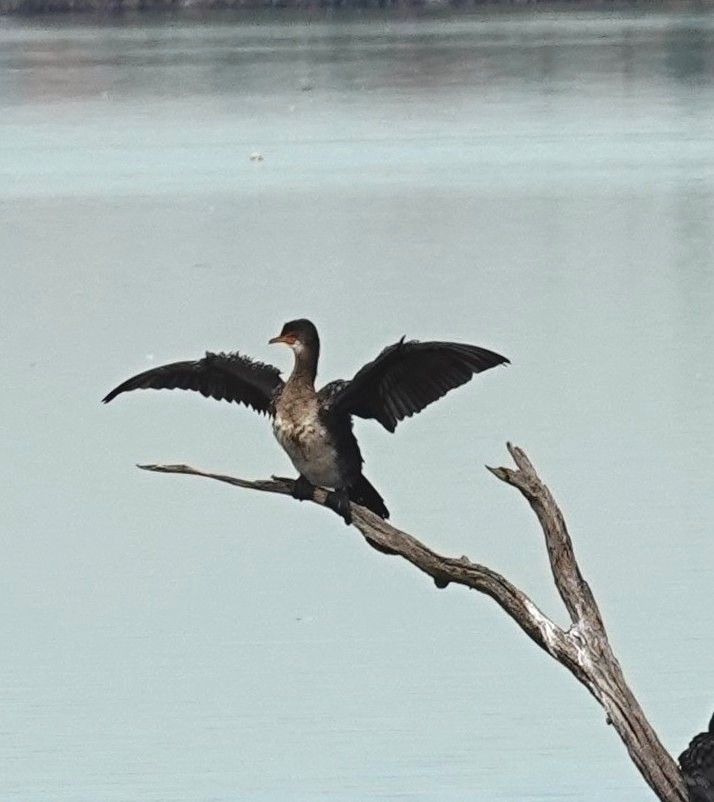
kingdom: Animalia
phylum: Chordata
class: Aves
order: Suliformes
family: Phalacrocoracidae
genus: Microcarbo
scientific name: Microcarbo africanus
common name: Long-tailed cormorant
